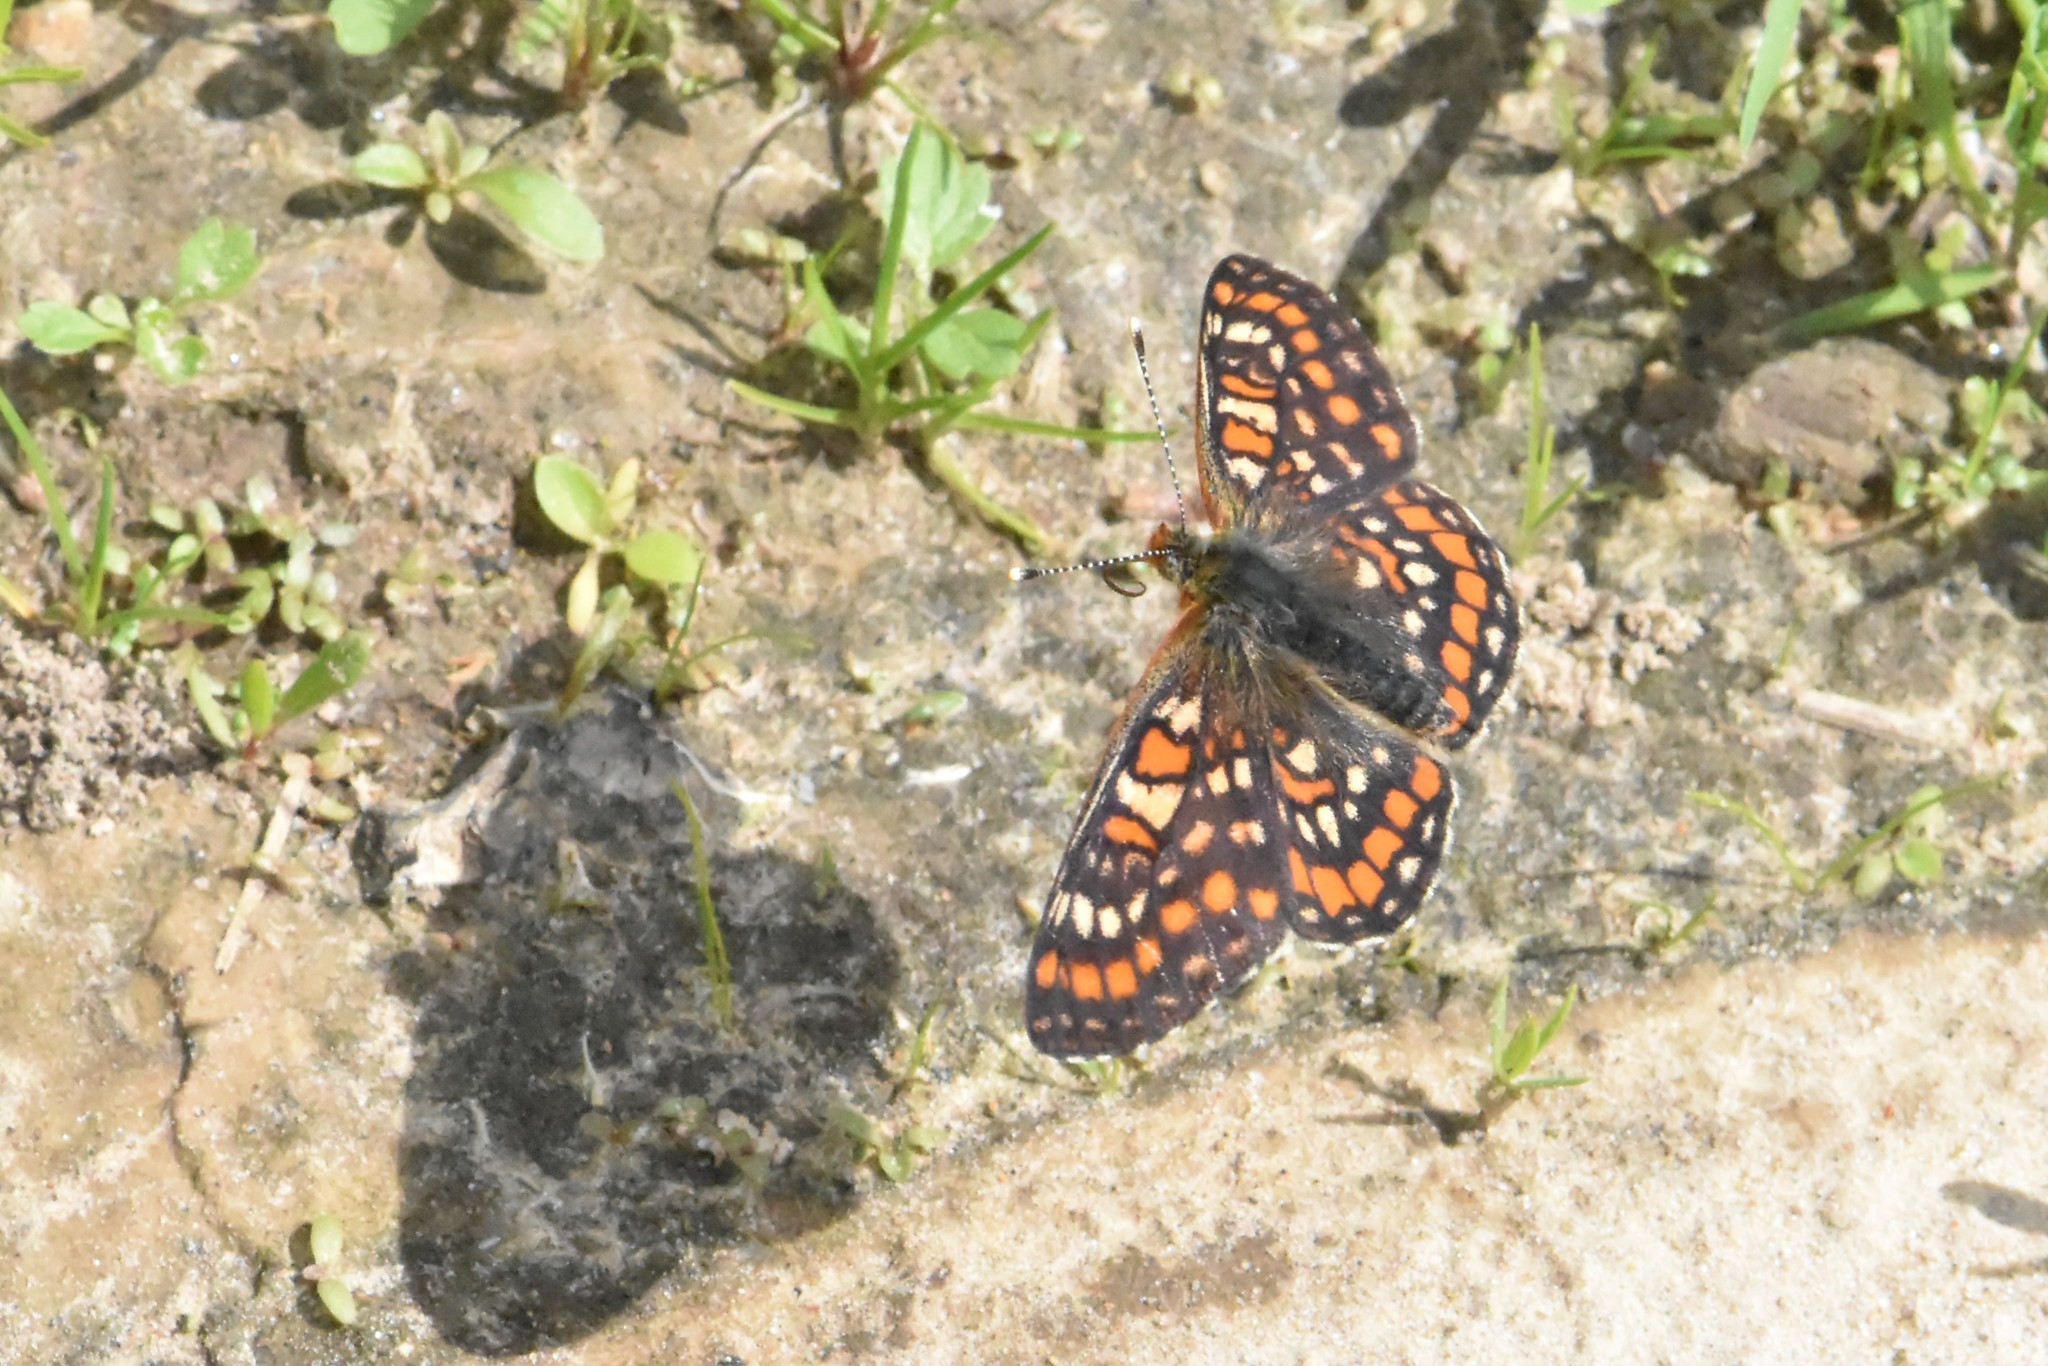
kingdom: Animalia
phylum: Arthropoda
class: Insecta
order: Lepidoptera
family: Nymphalidae
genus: Euphydryas
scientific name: Euphydryas maturna
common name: Scarce fritillary
